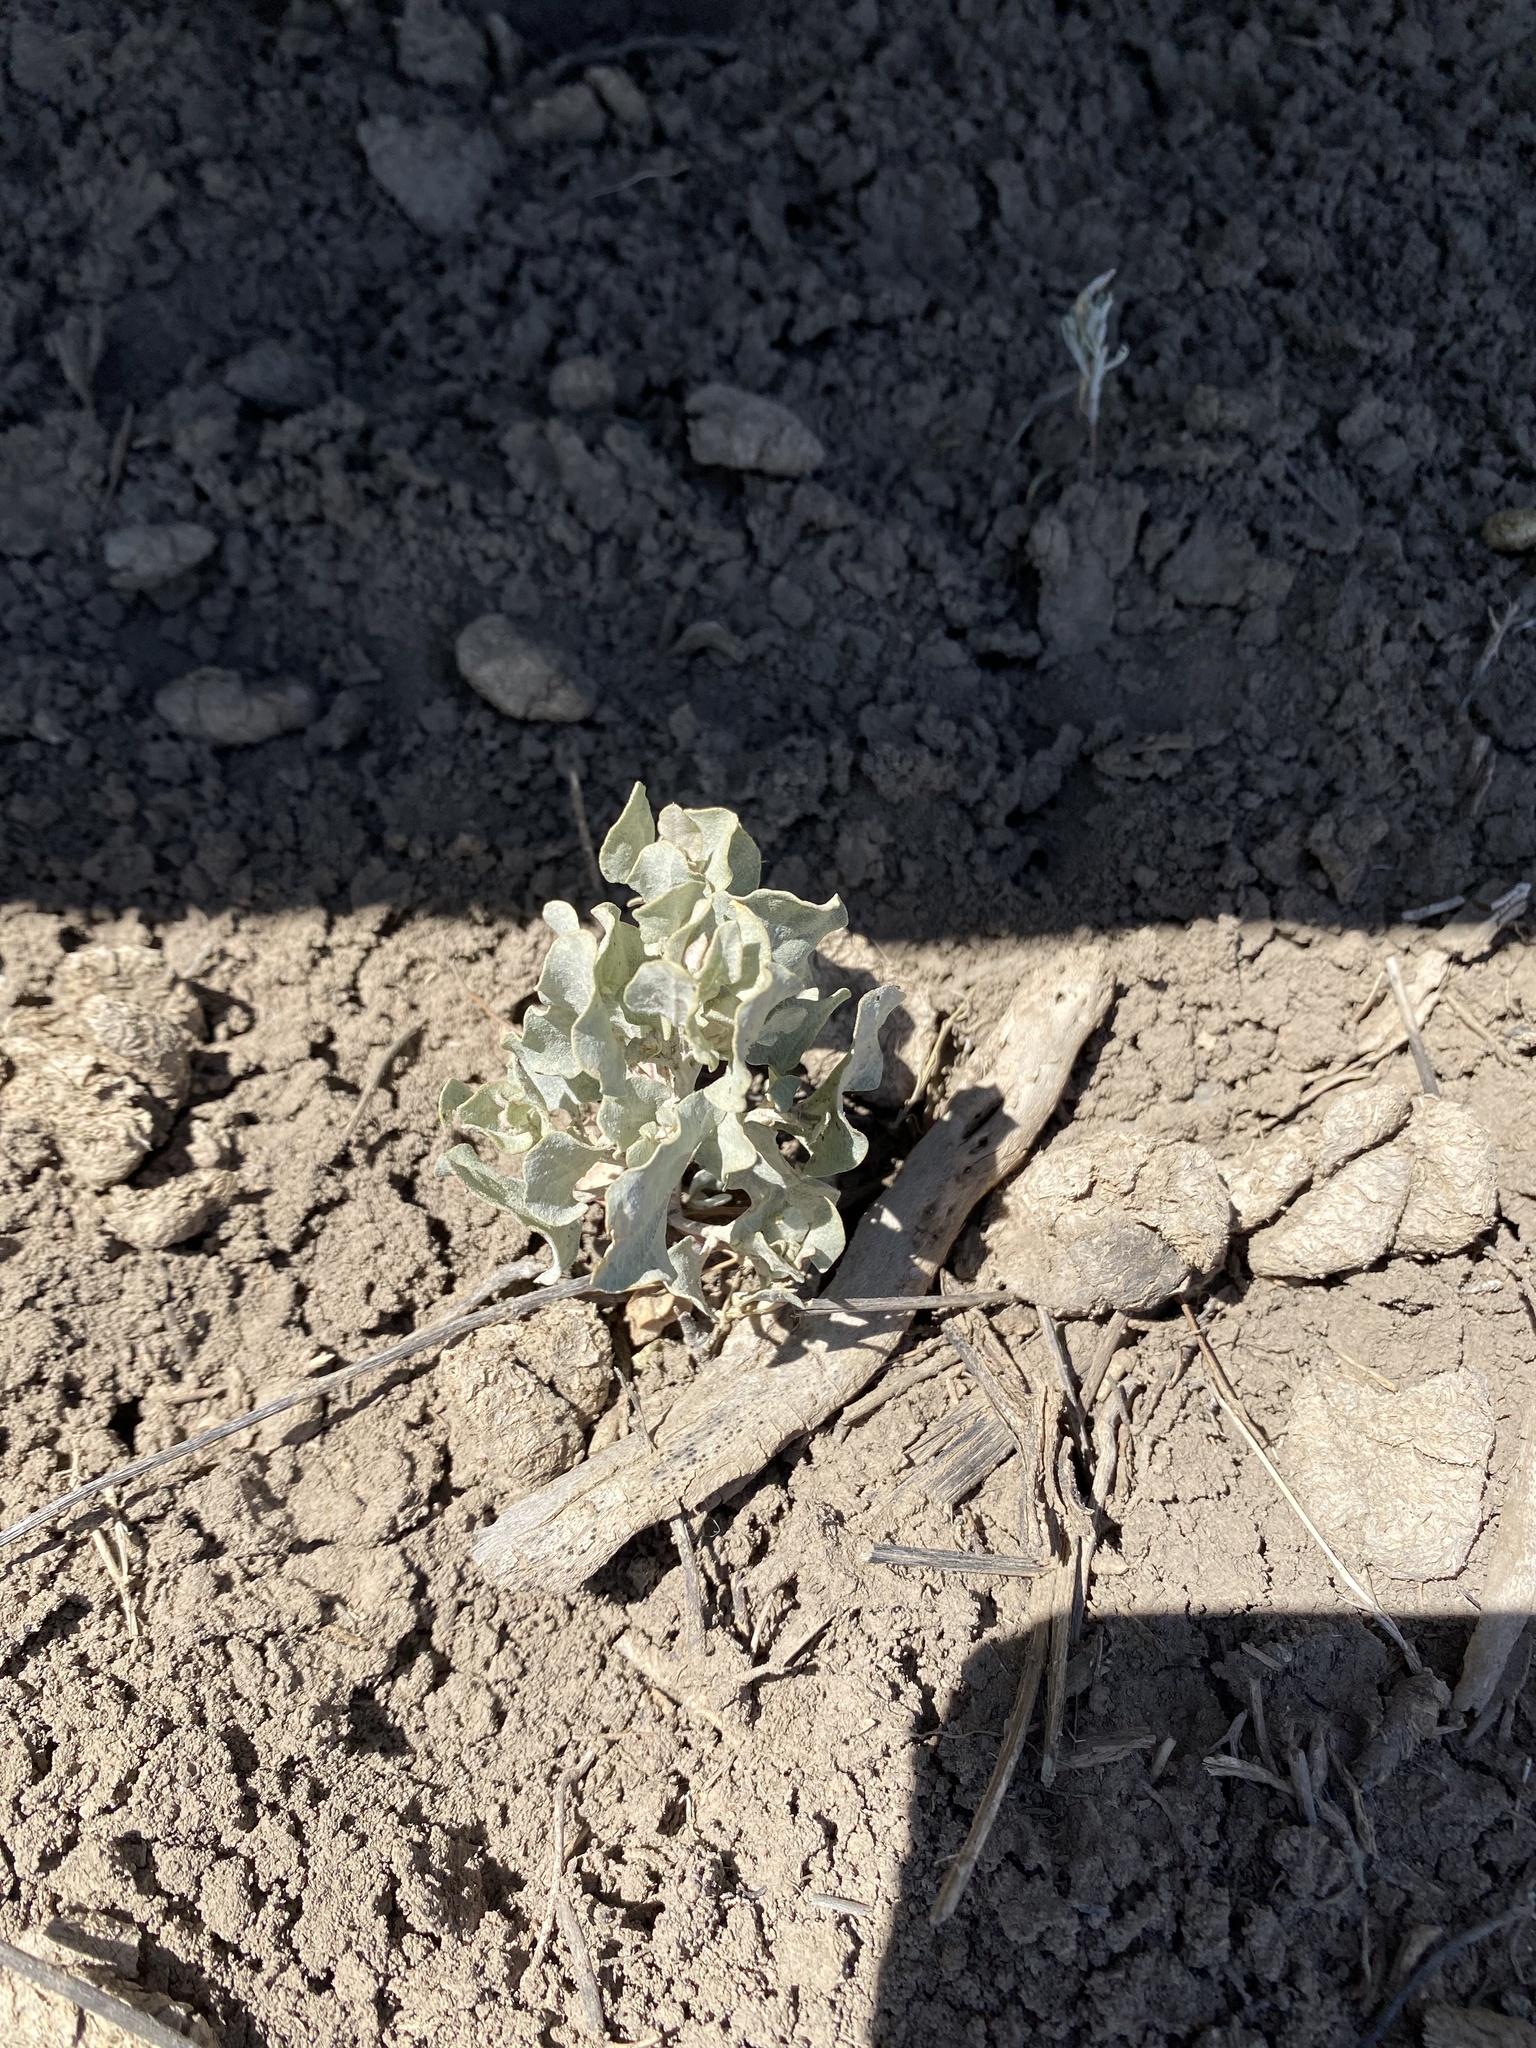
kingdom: Plantae
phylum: Tracheophyta
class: Magnoliopsida
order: Caryophyllales
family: Amaranthaceae
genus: Atriplex
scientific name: Atriplex
